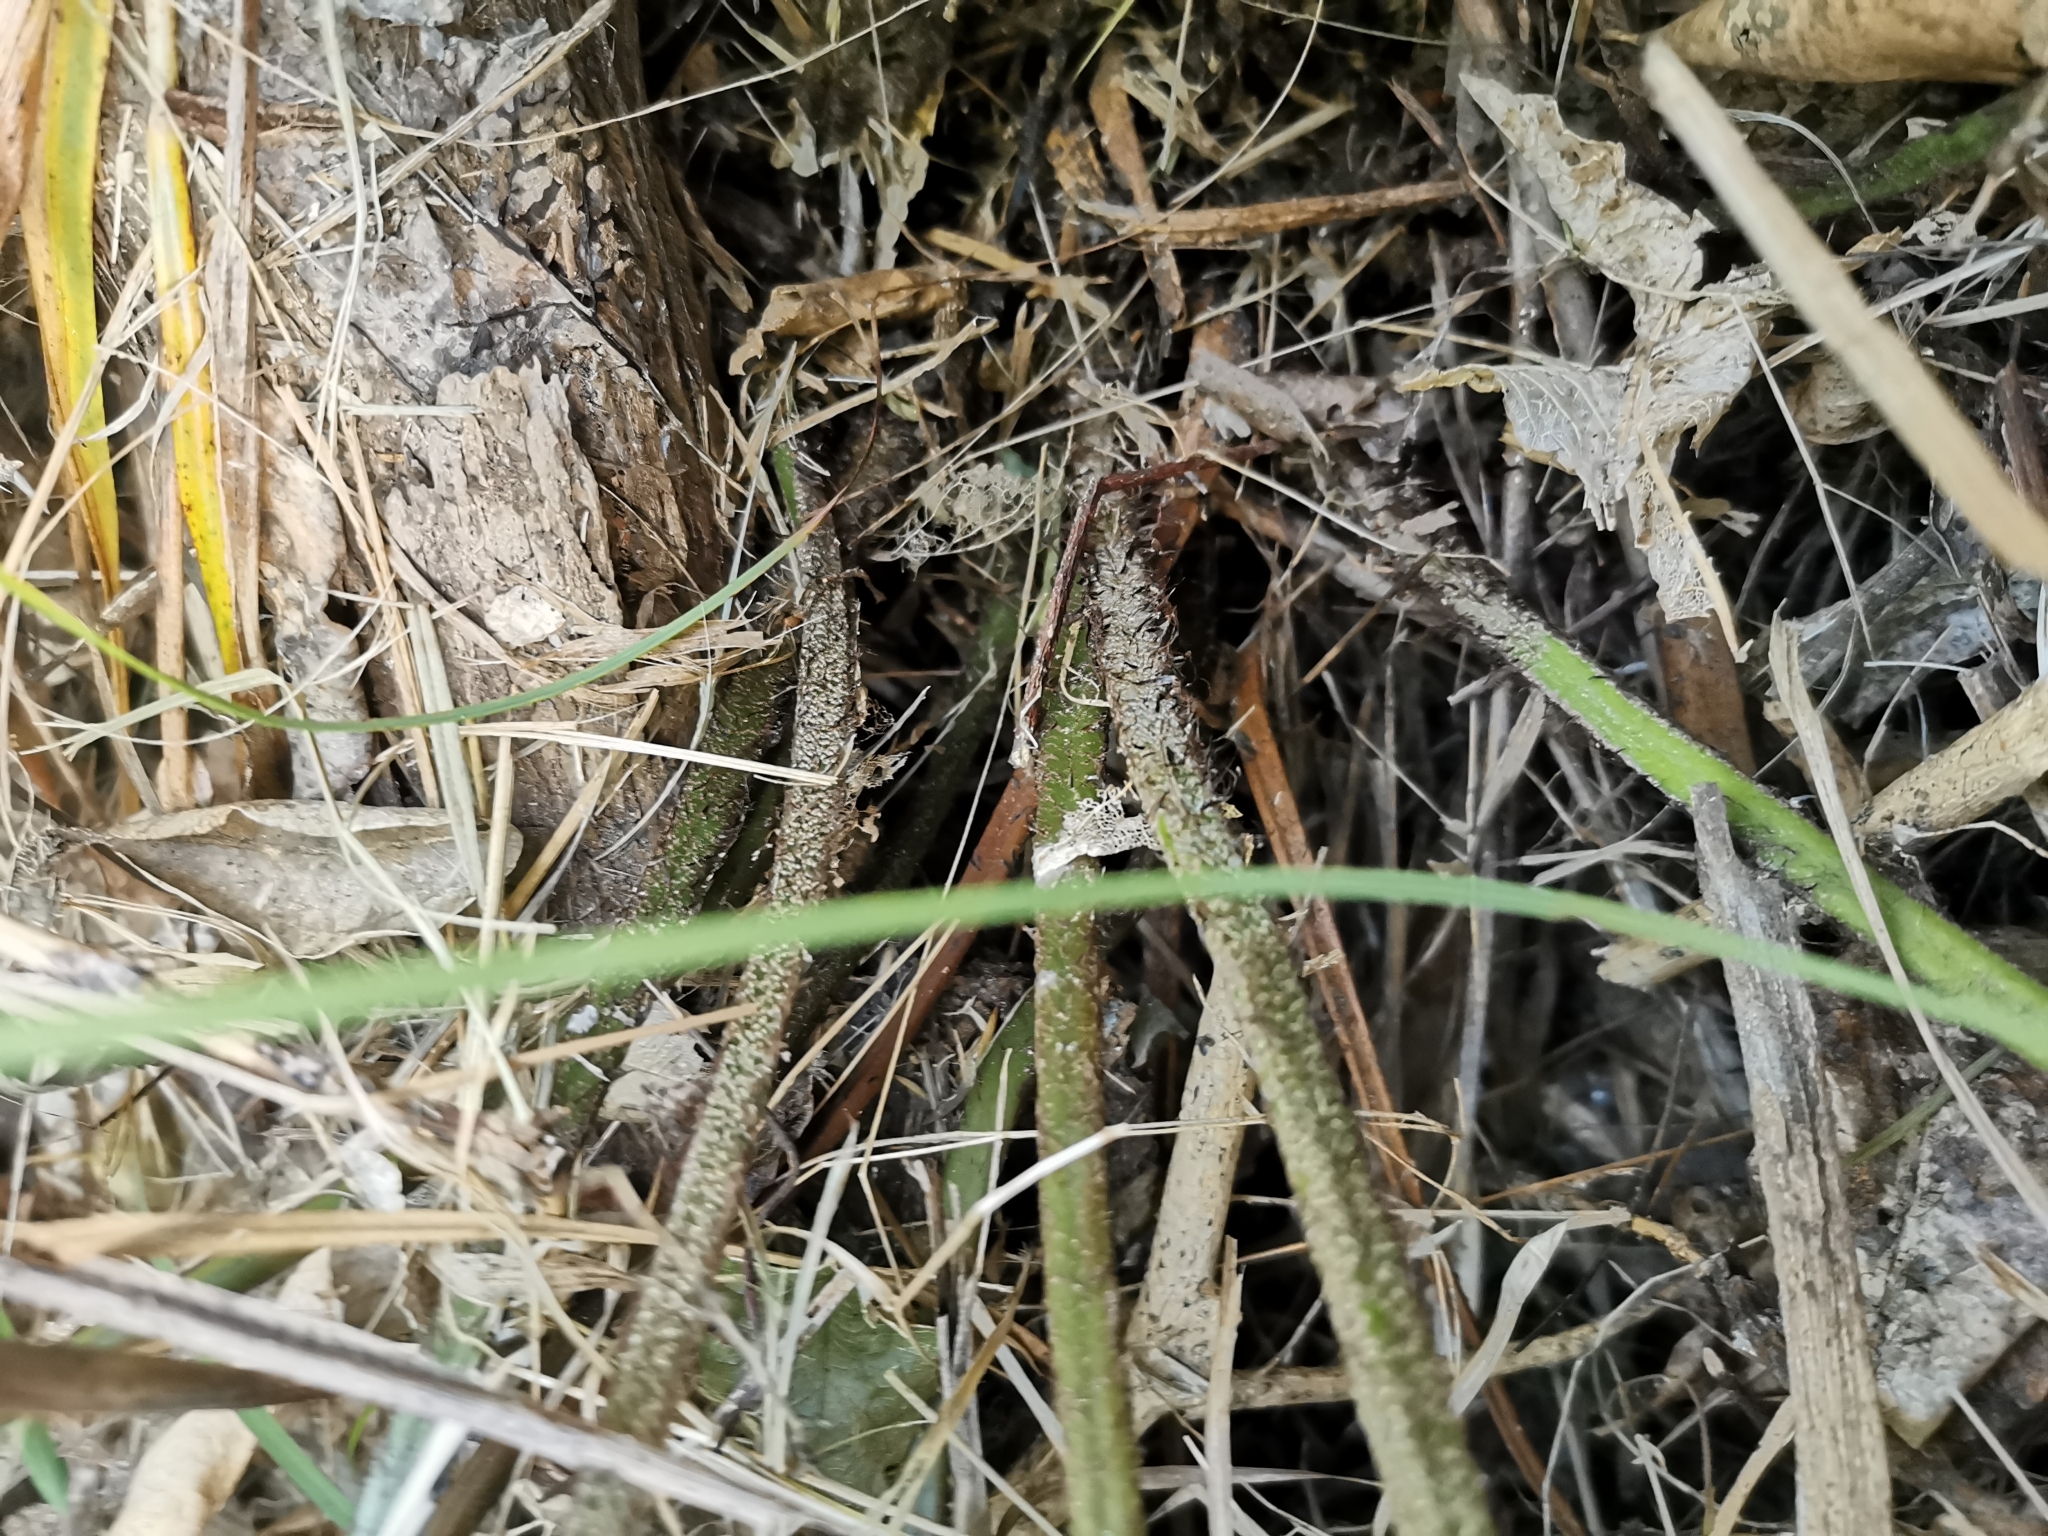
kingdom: Plantae
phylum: Tracheophyta
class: Polypodiopsida
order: Polypodiales
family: Dryopteridaceae
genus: Polystichum
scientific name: Polystichum wawranum
